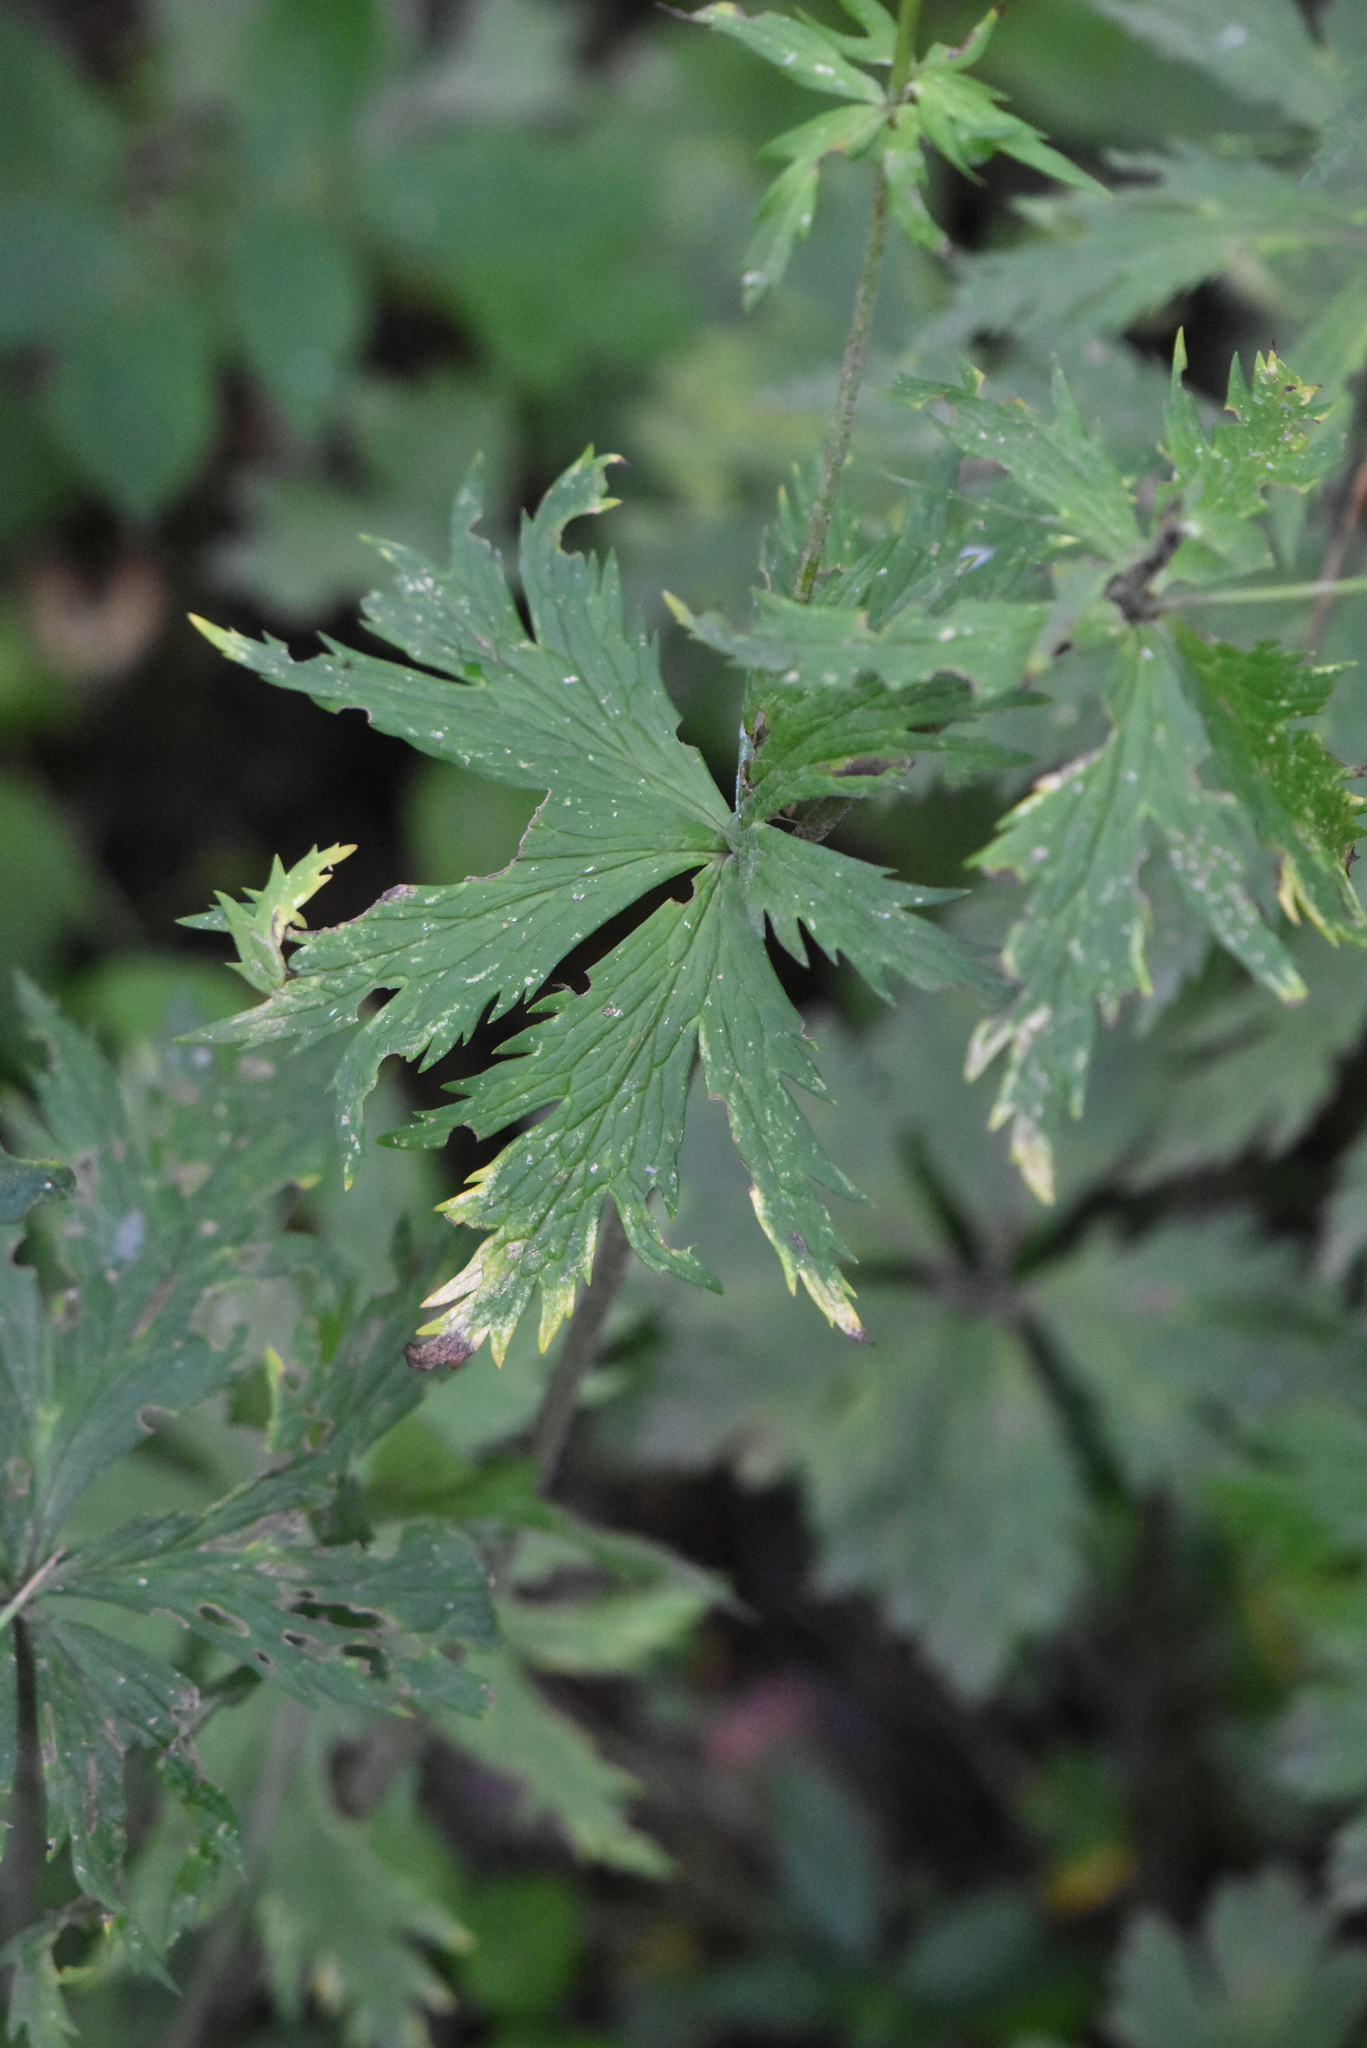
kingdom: Plantae
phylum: Tracheophyta
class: Magnoliopsida
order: Ranunculales
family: Ranunculaceae
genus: Trollius
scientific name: Trollius asiaticus
